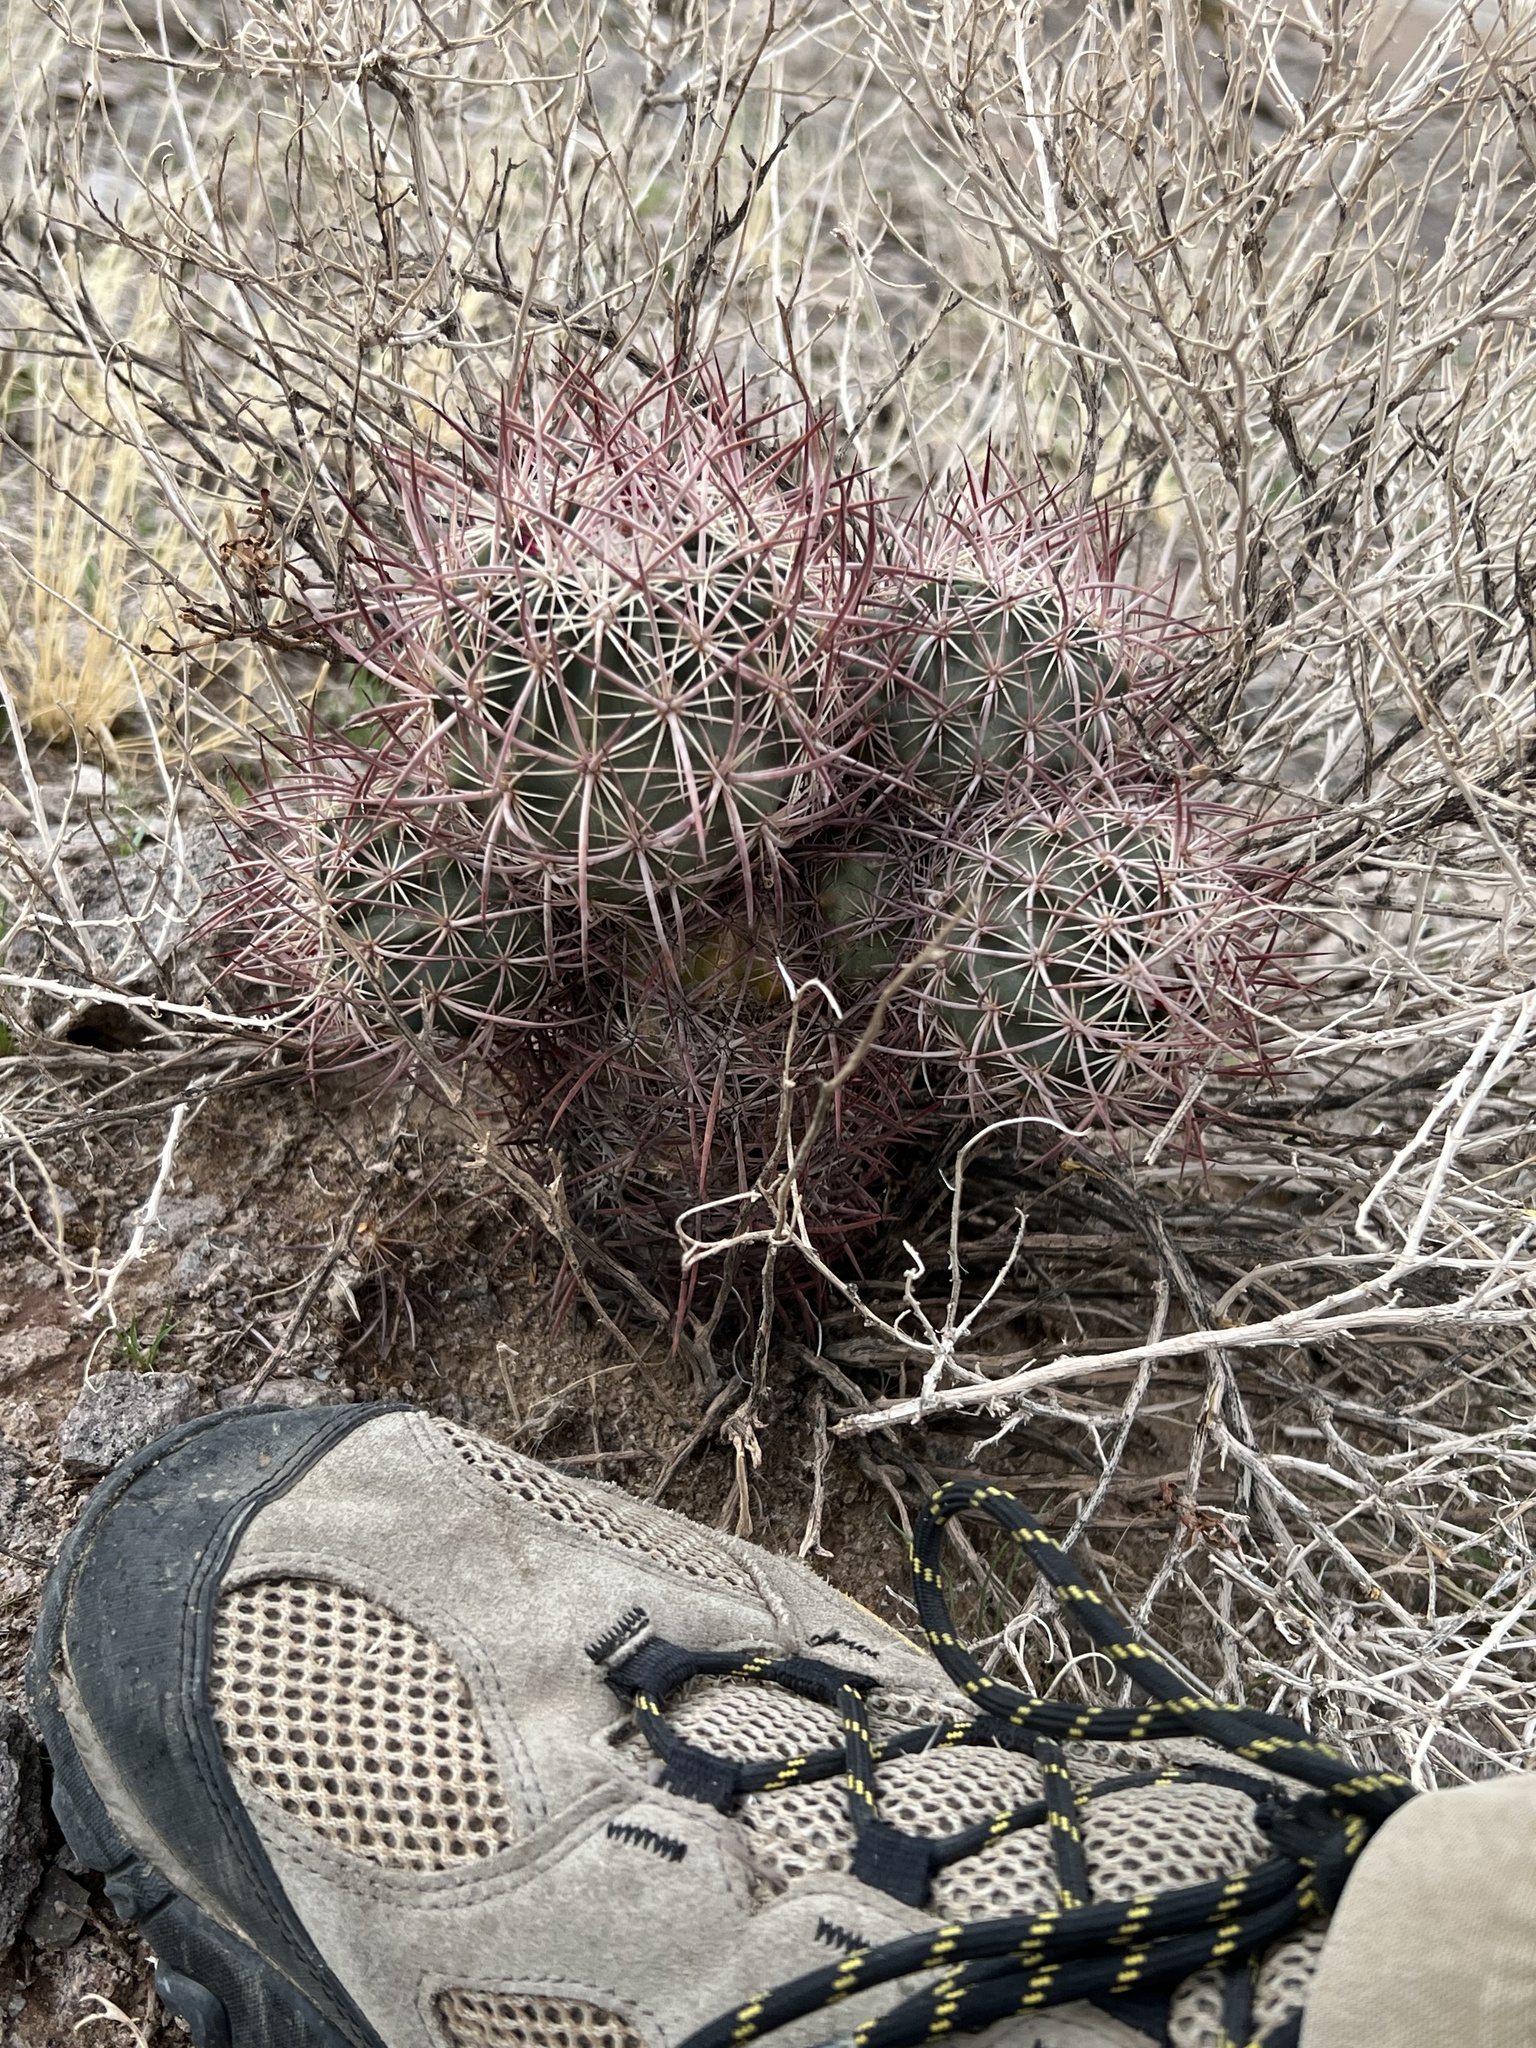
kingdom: Plantae
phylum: Tracheophyta
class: Magnoliopsida
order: Caryophyllales
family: Cactaceae
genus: Sclerocactus
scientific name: Sclerocactus johnsonii
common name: Eight-spine fishhook cactus
